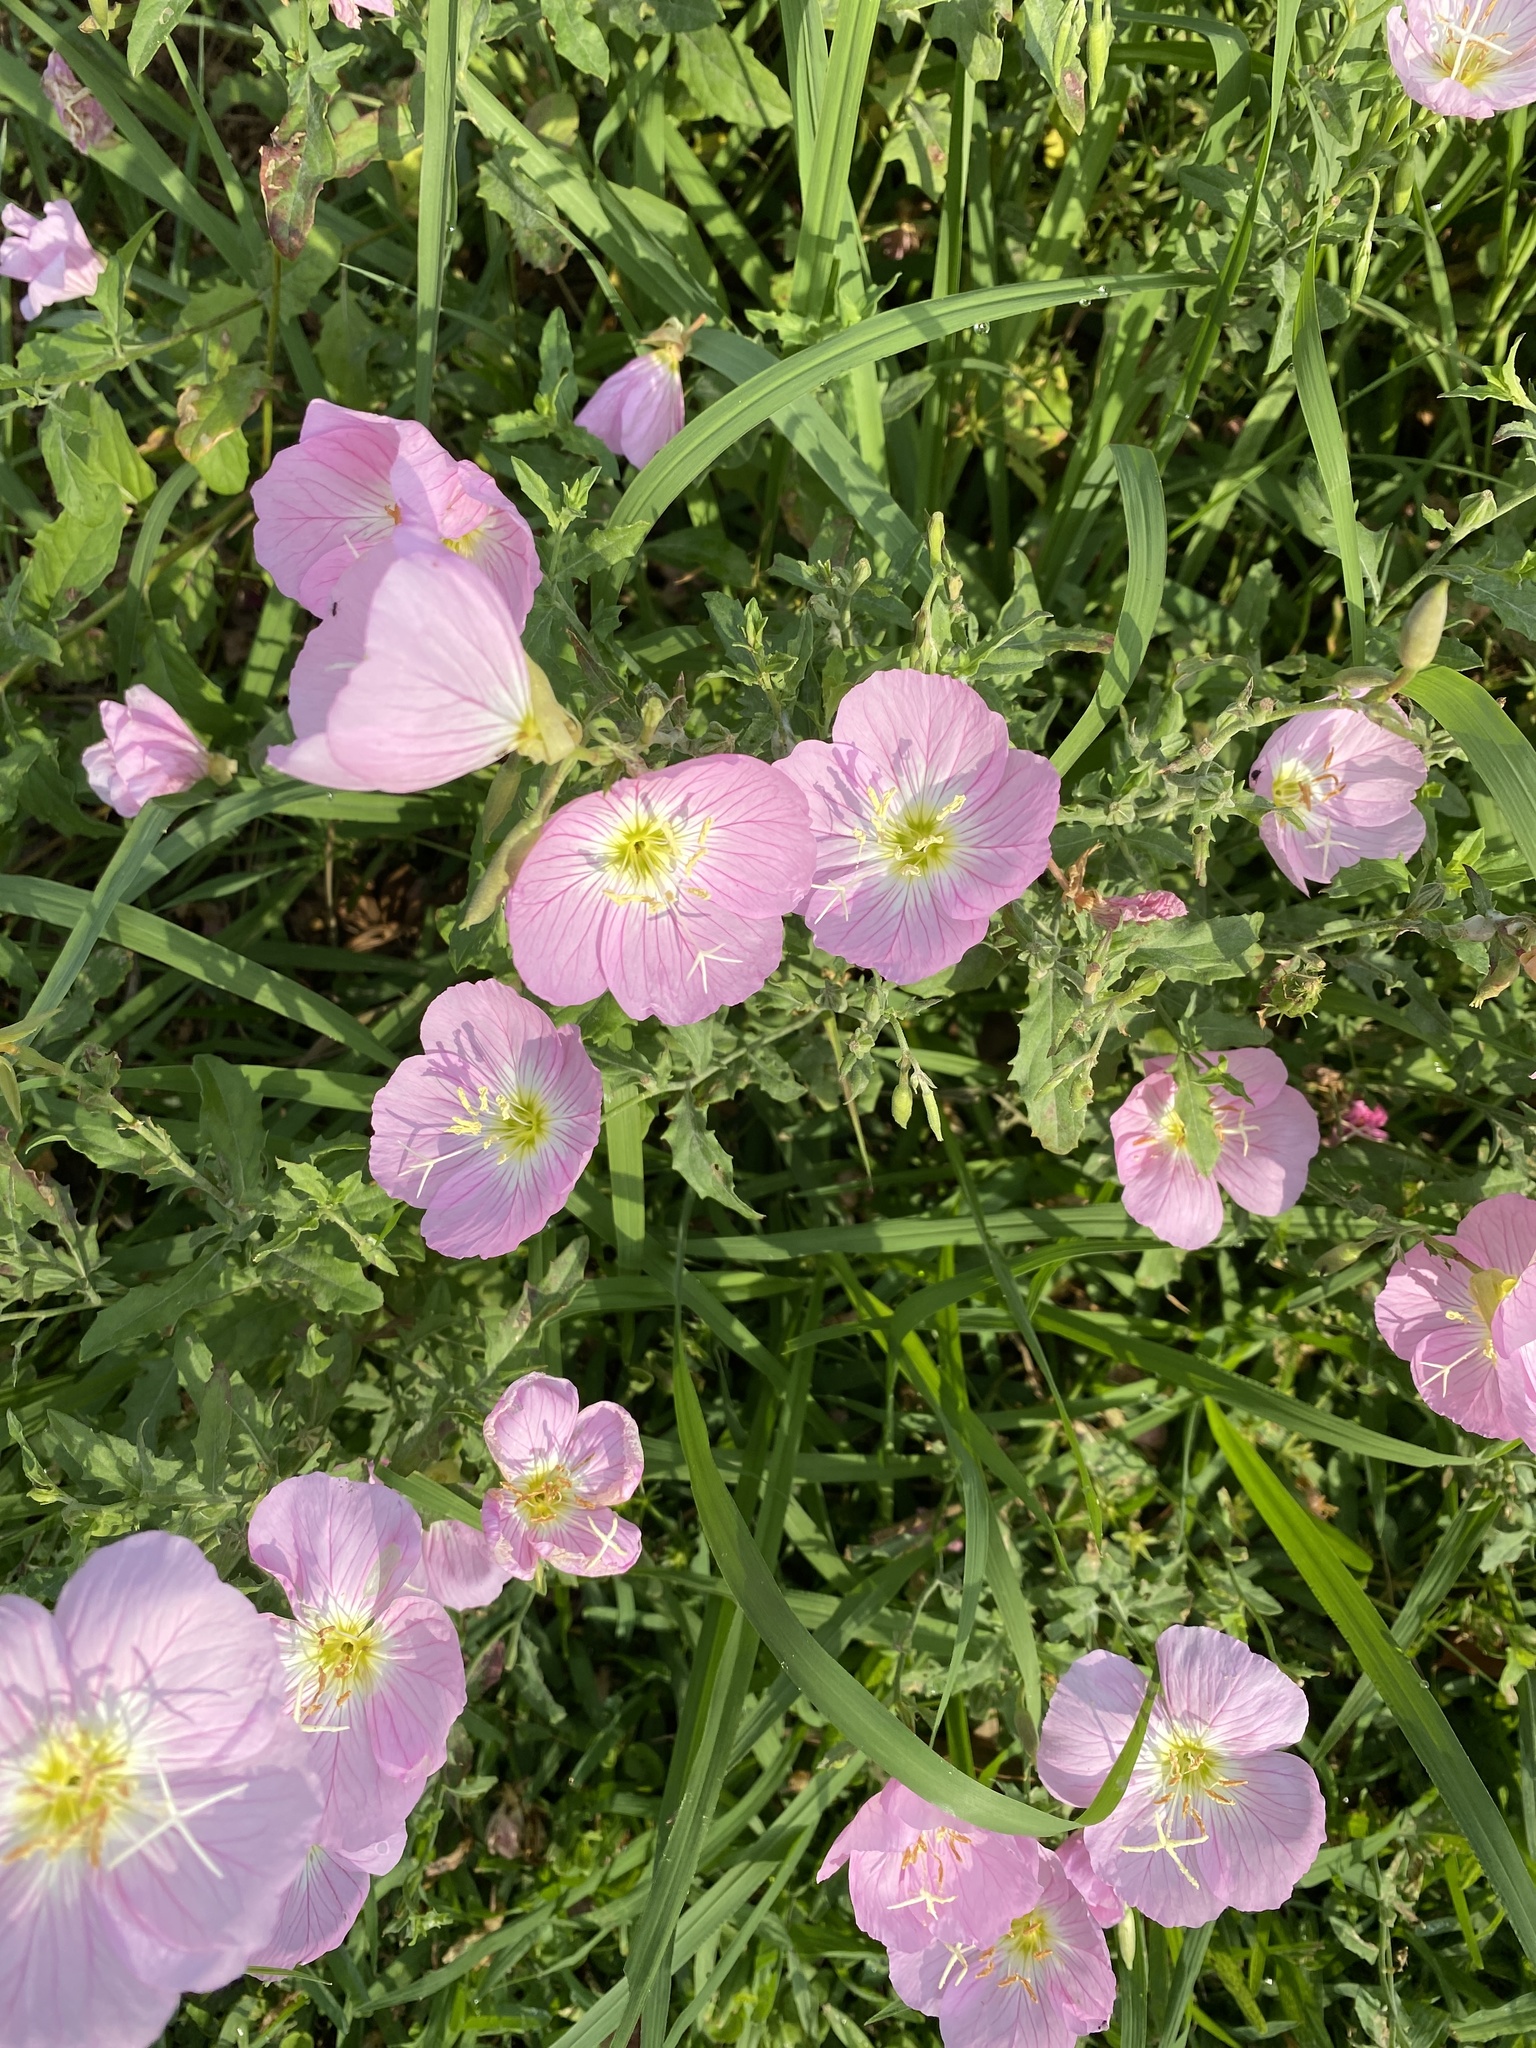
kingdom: Plantae
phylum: Tracheophyta
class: Magnoliopsida
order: Myrtales
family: Onagraceae
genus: Oenothera
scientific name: Oenothera speciosa
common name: White evening-primrose
